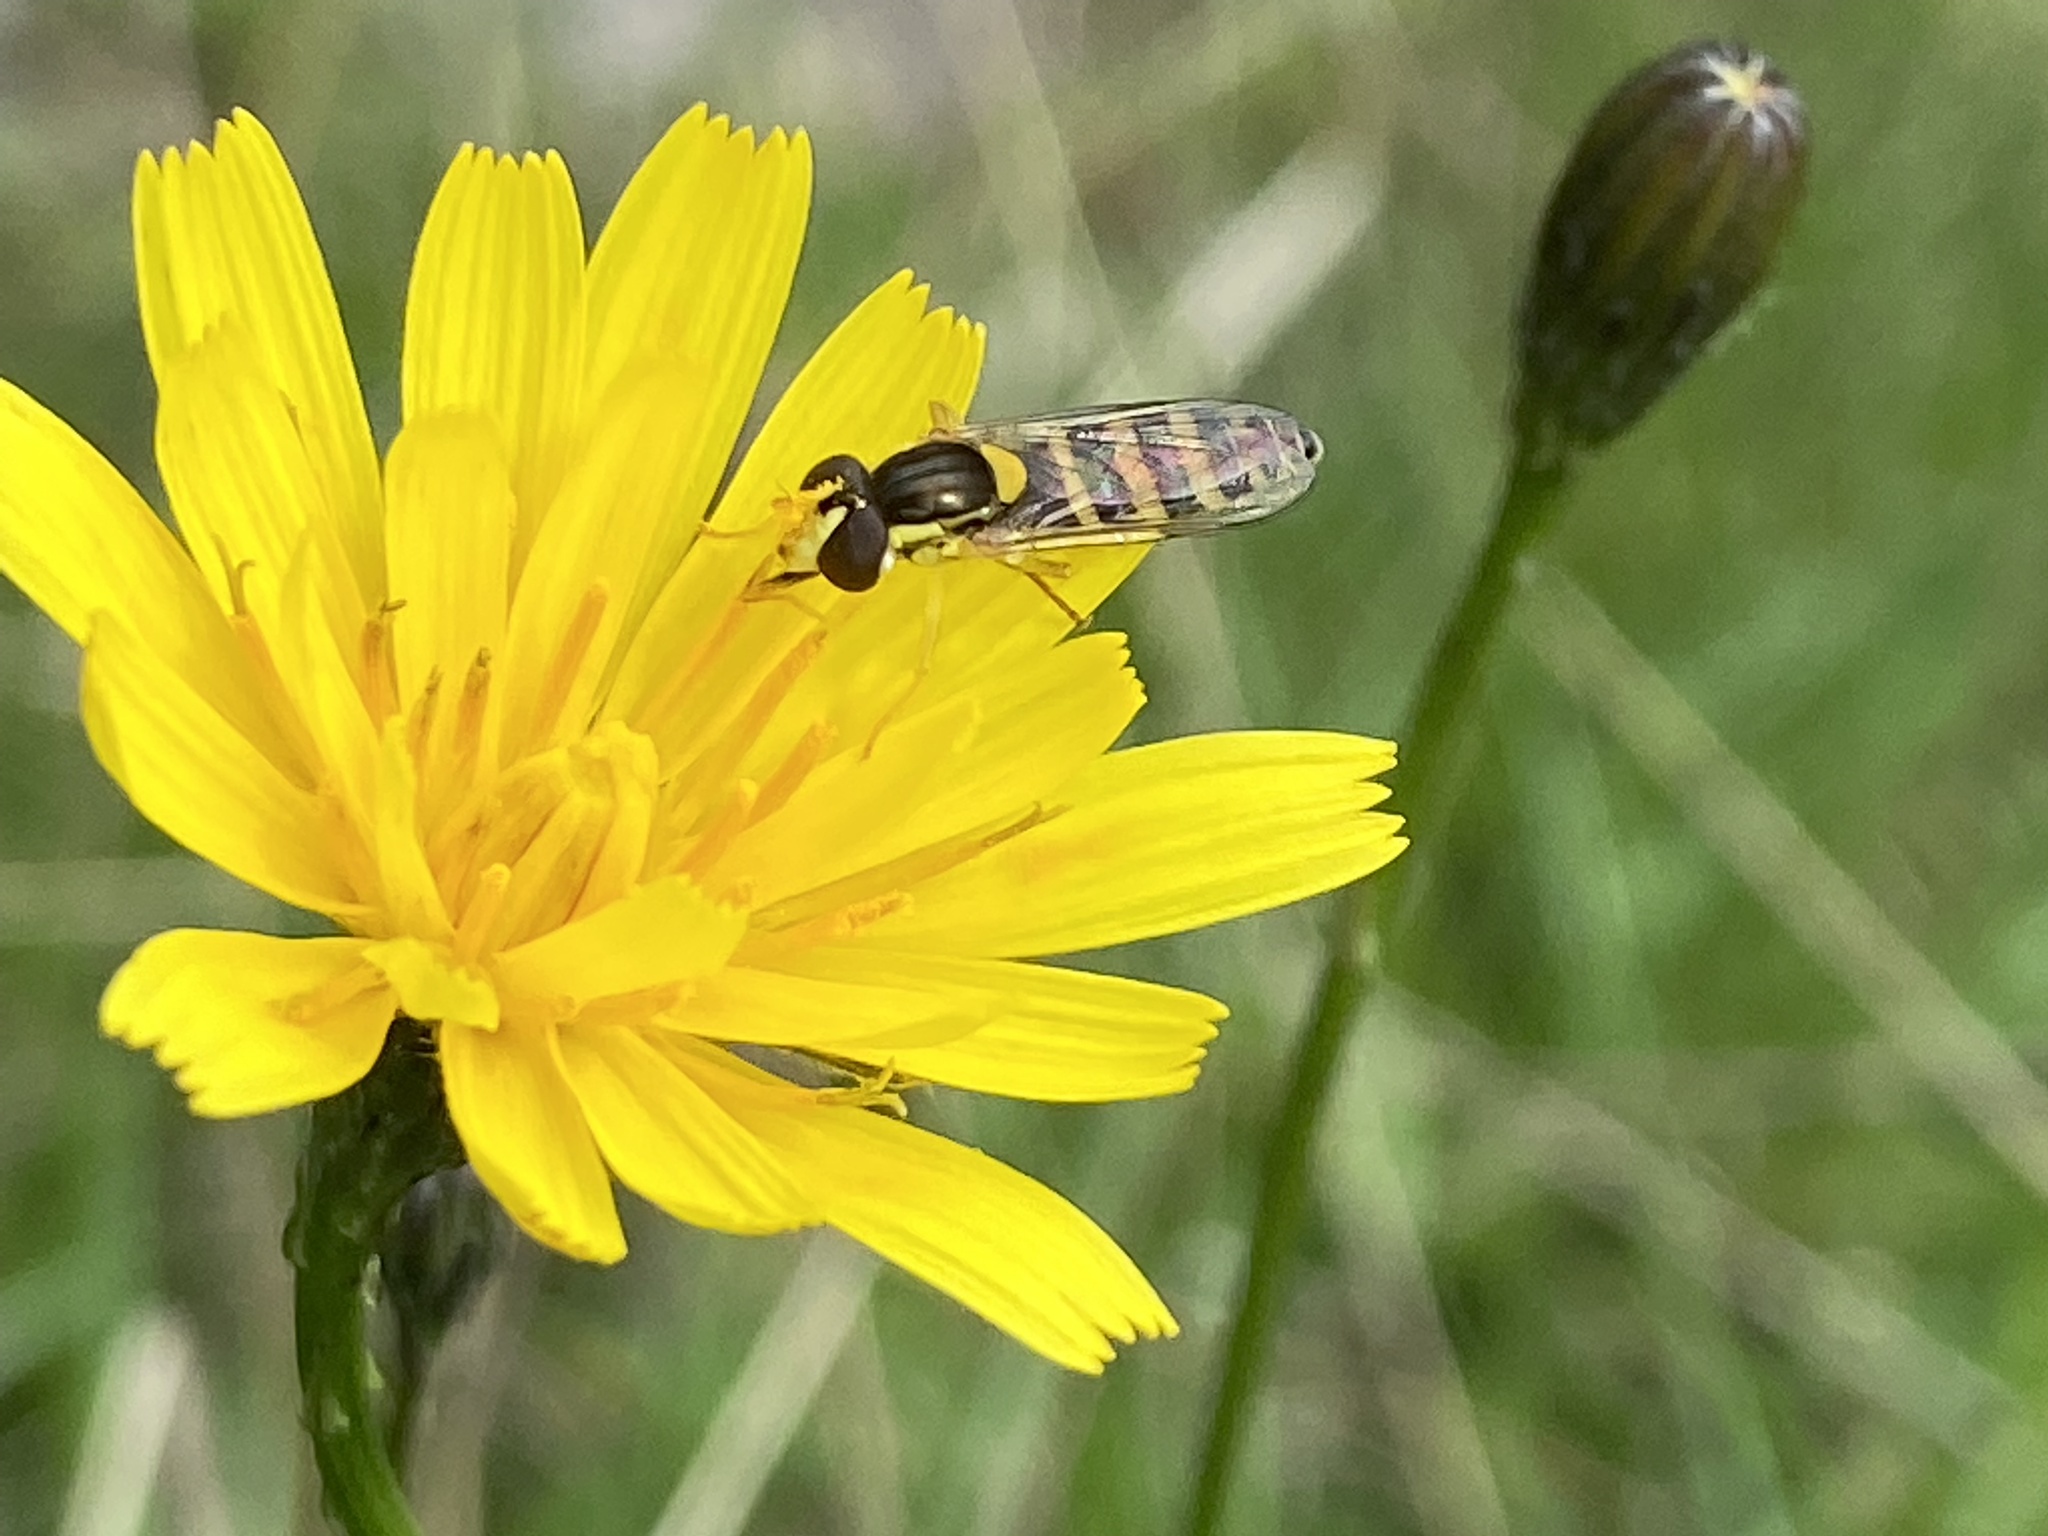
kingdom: Animalia
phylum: Arthropoda
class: Insecta
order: Diptera
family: Syrphidae
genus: Sphaerophoria
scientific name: Sphaerophoria scripta
